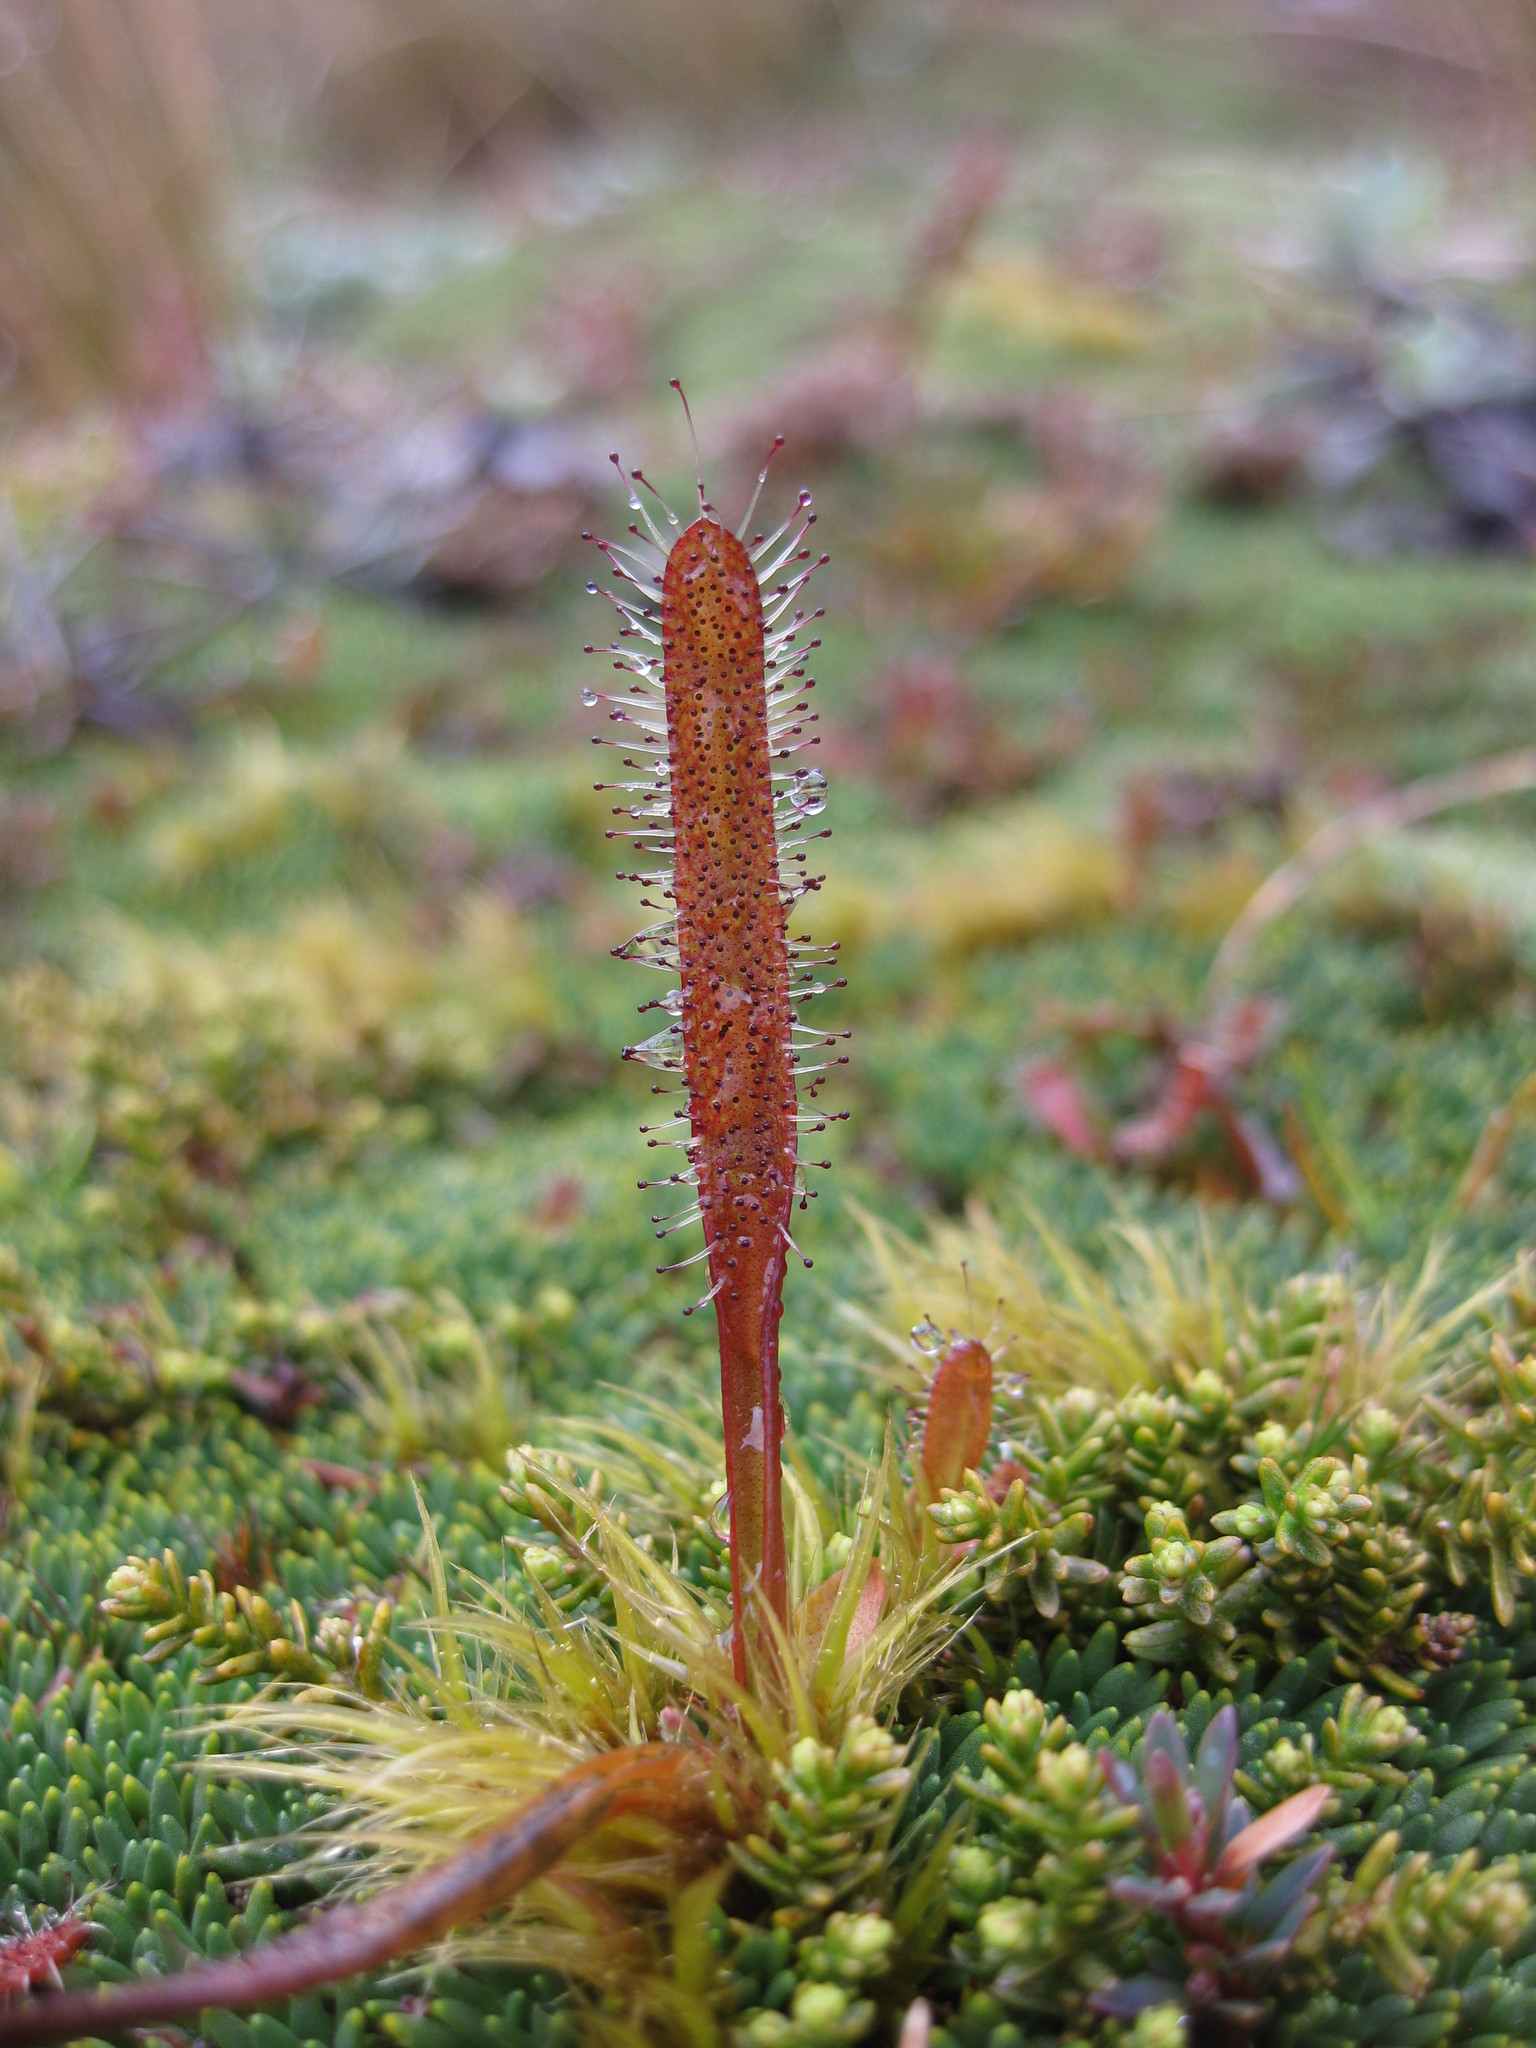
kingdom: Plantae
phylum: Tracheophyta
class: Magnoliopsida
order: Caryophyllales
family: Droseraceae
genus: Drosera
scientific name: Drosera arcturi
